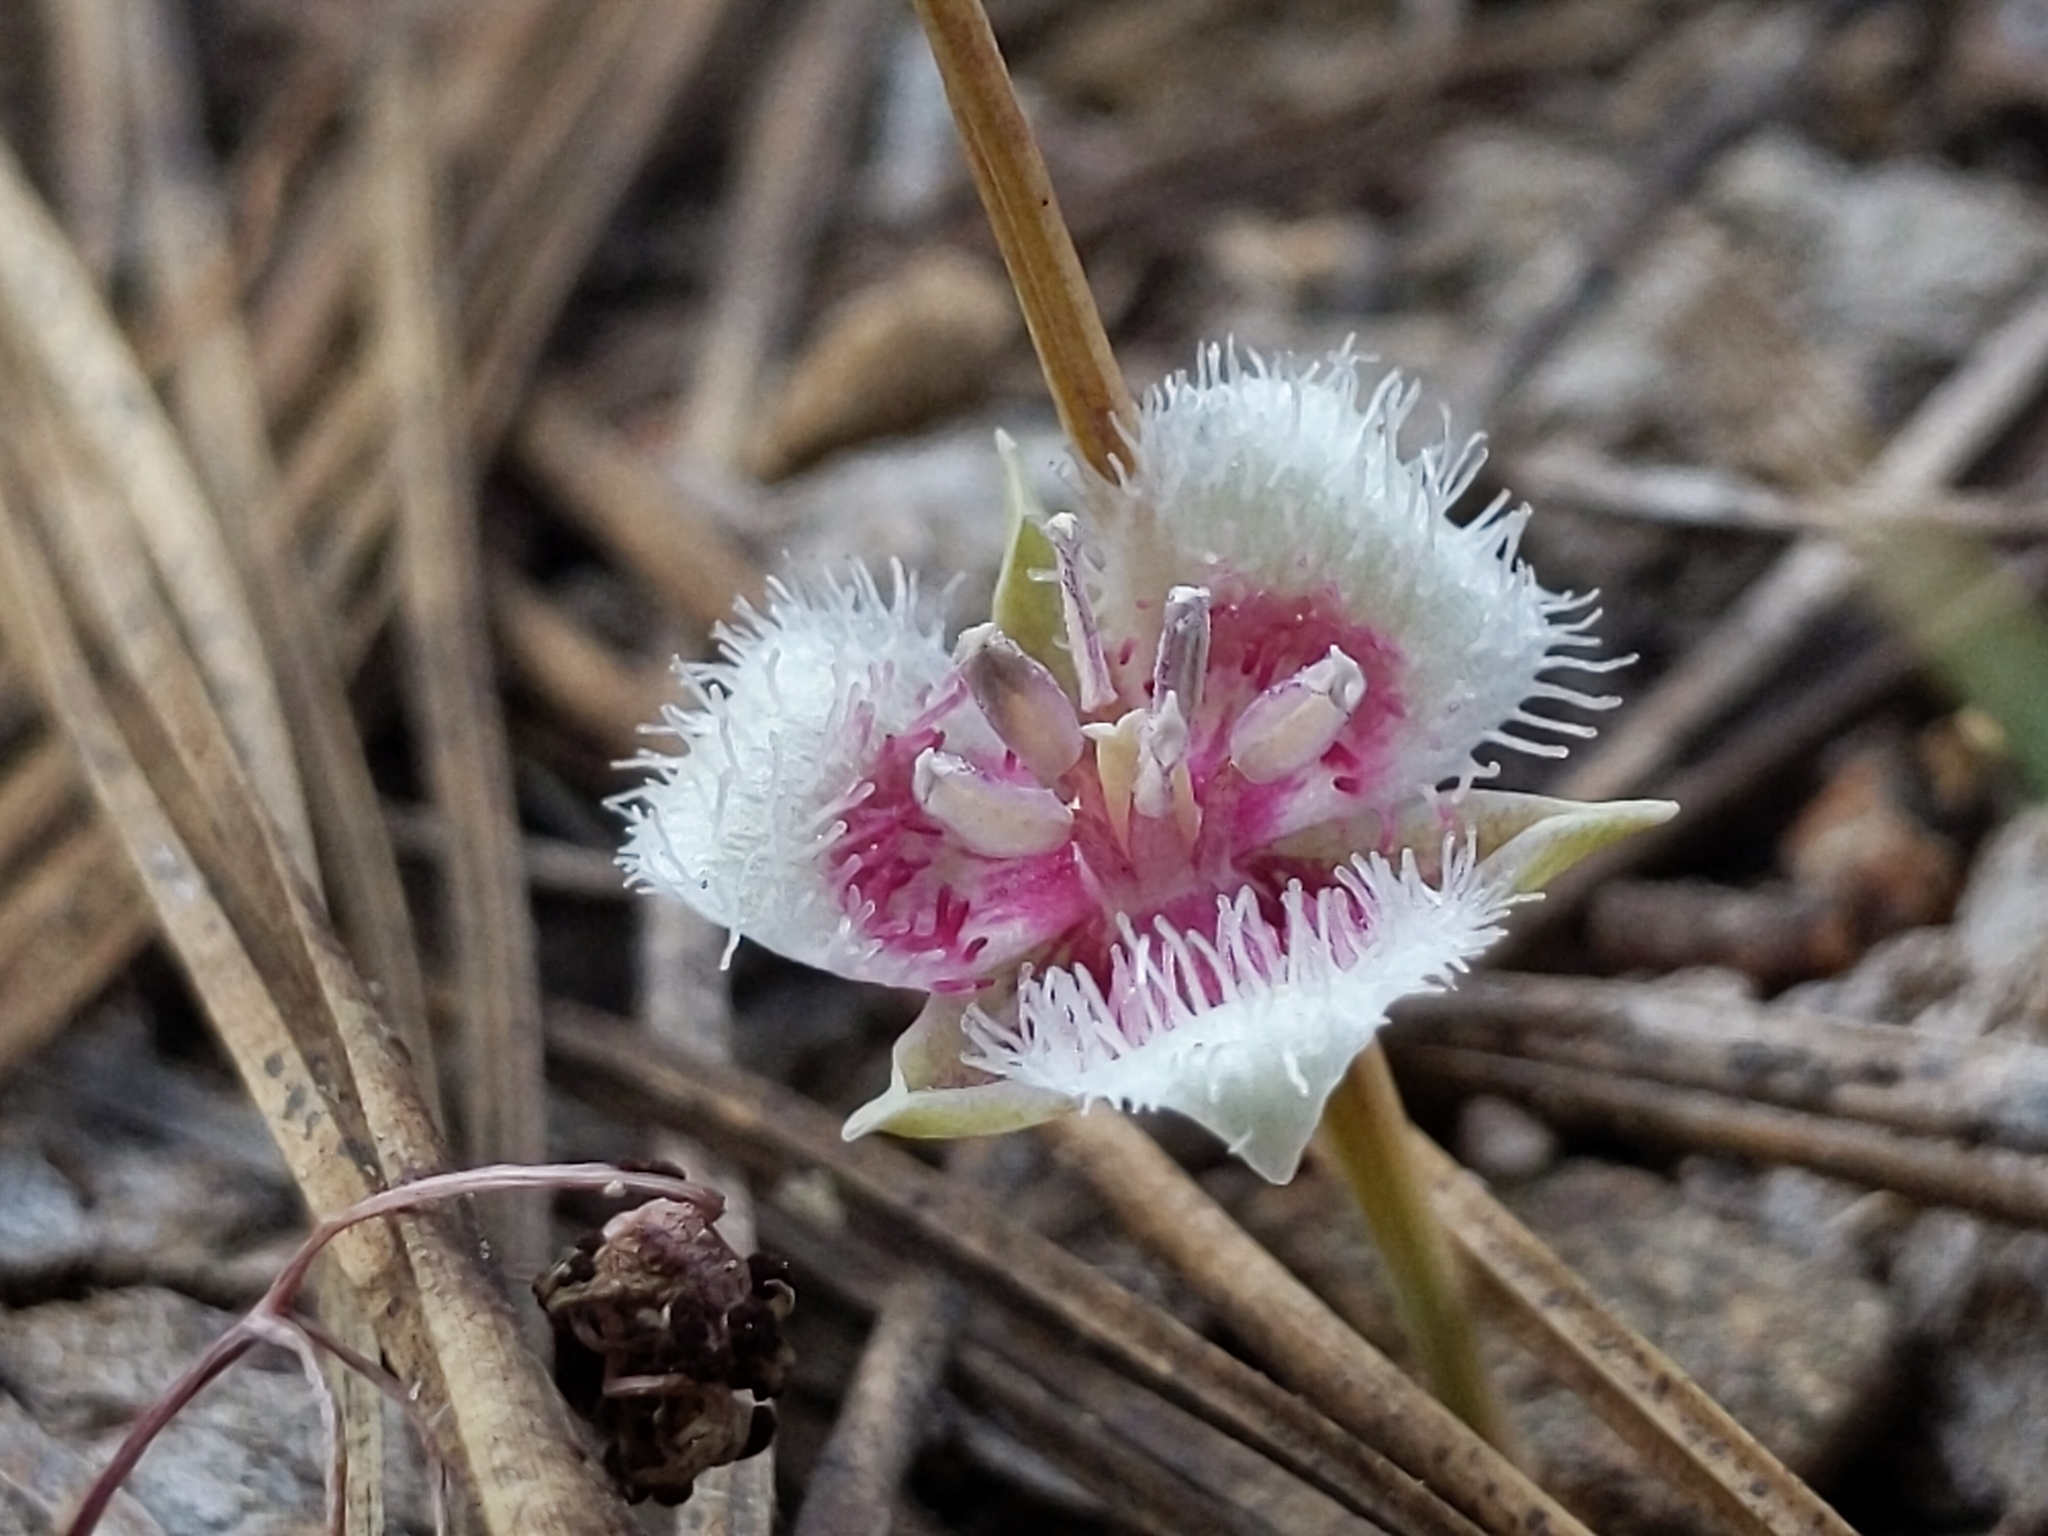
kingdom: Plantae
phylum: Tracheophyta
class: Liliopsida
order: Liliales
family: Liliaceae
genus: Calochortus
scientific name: Calochortus elegans
